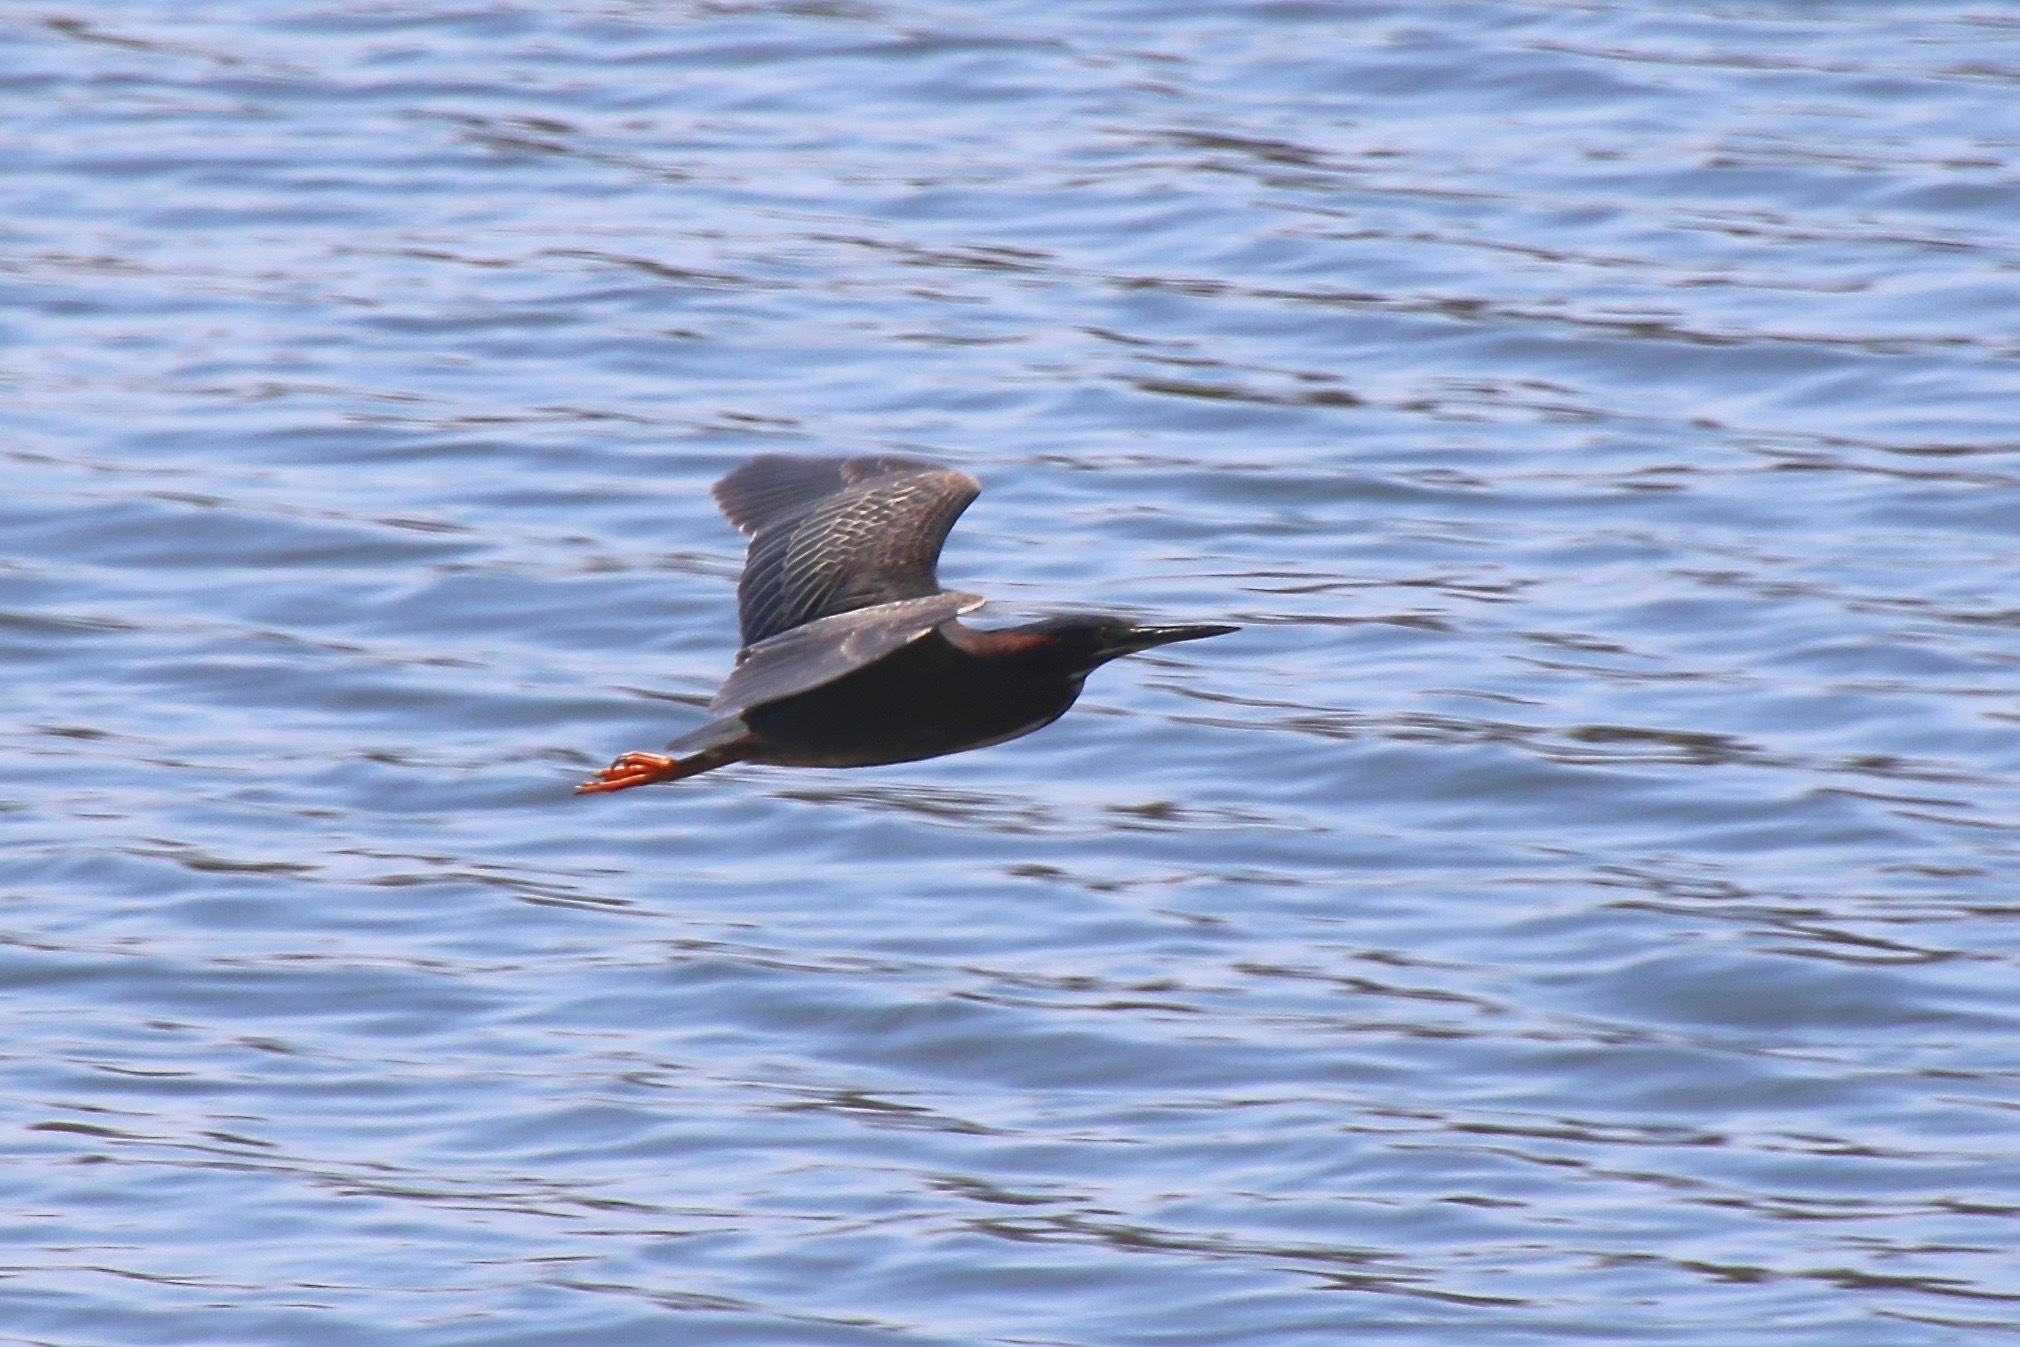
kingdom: Animalia
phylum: Chordata
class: Aves
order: Pelecaniformes
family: Ardeidae
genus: Butorides
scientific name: Butorides virescens
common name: Green heron
